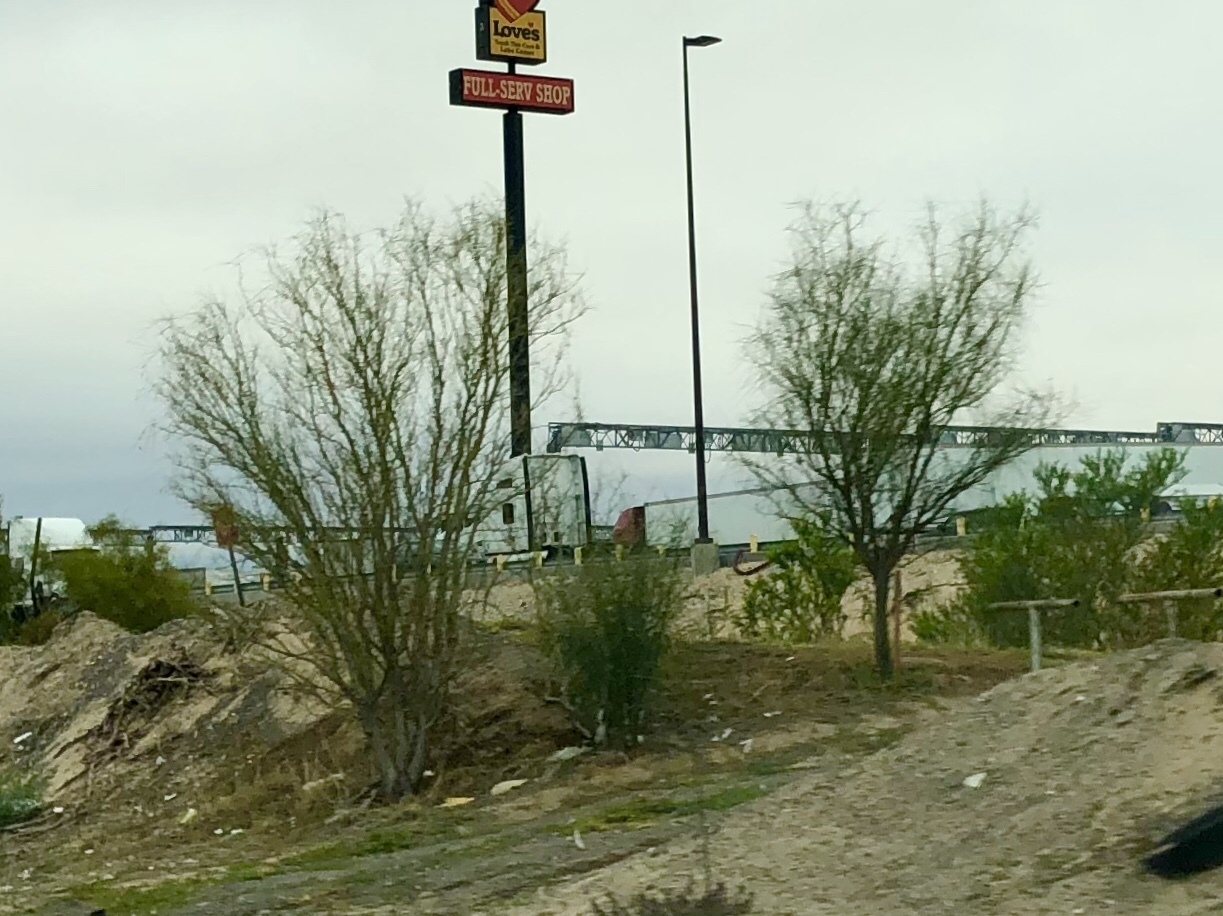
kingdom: Plantae
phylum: Tracheophyta
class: Magnoliopsida
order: Fabales
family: Fabaceae
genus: Parkinsonia
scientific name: Parkinsonia aculeata
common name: Jerusalem thorn
